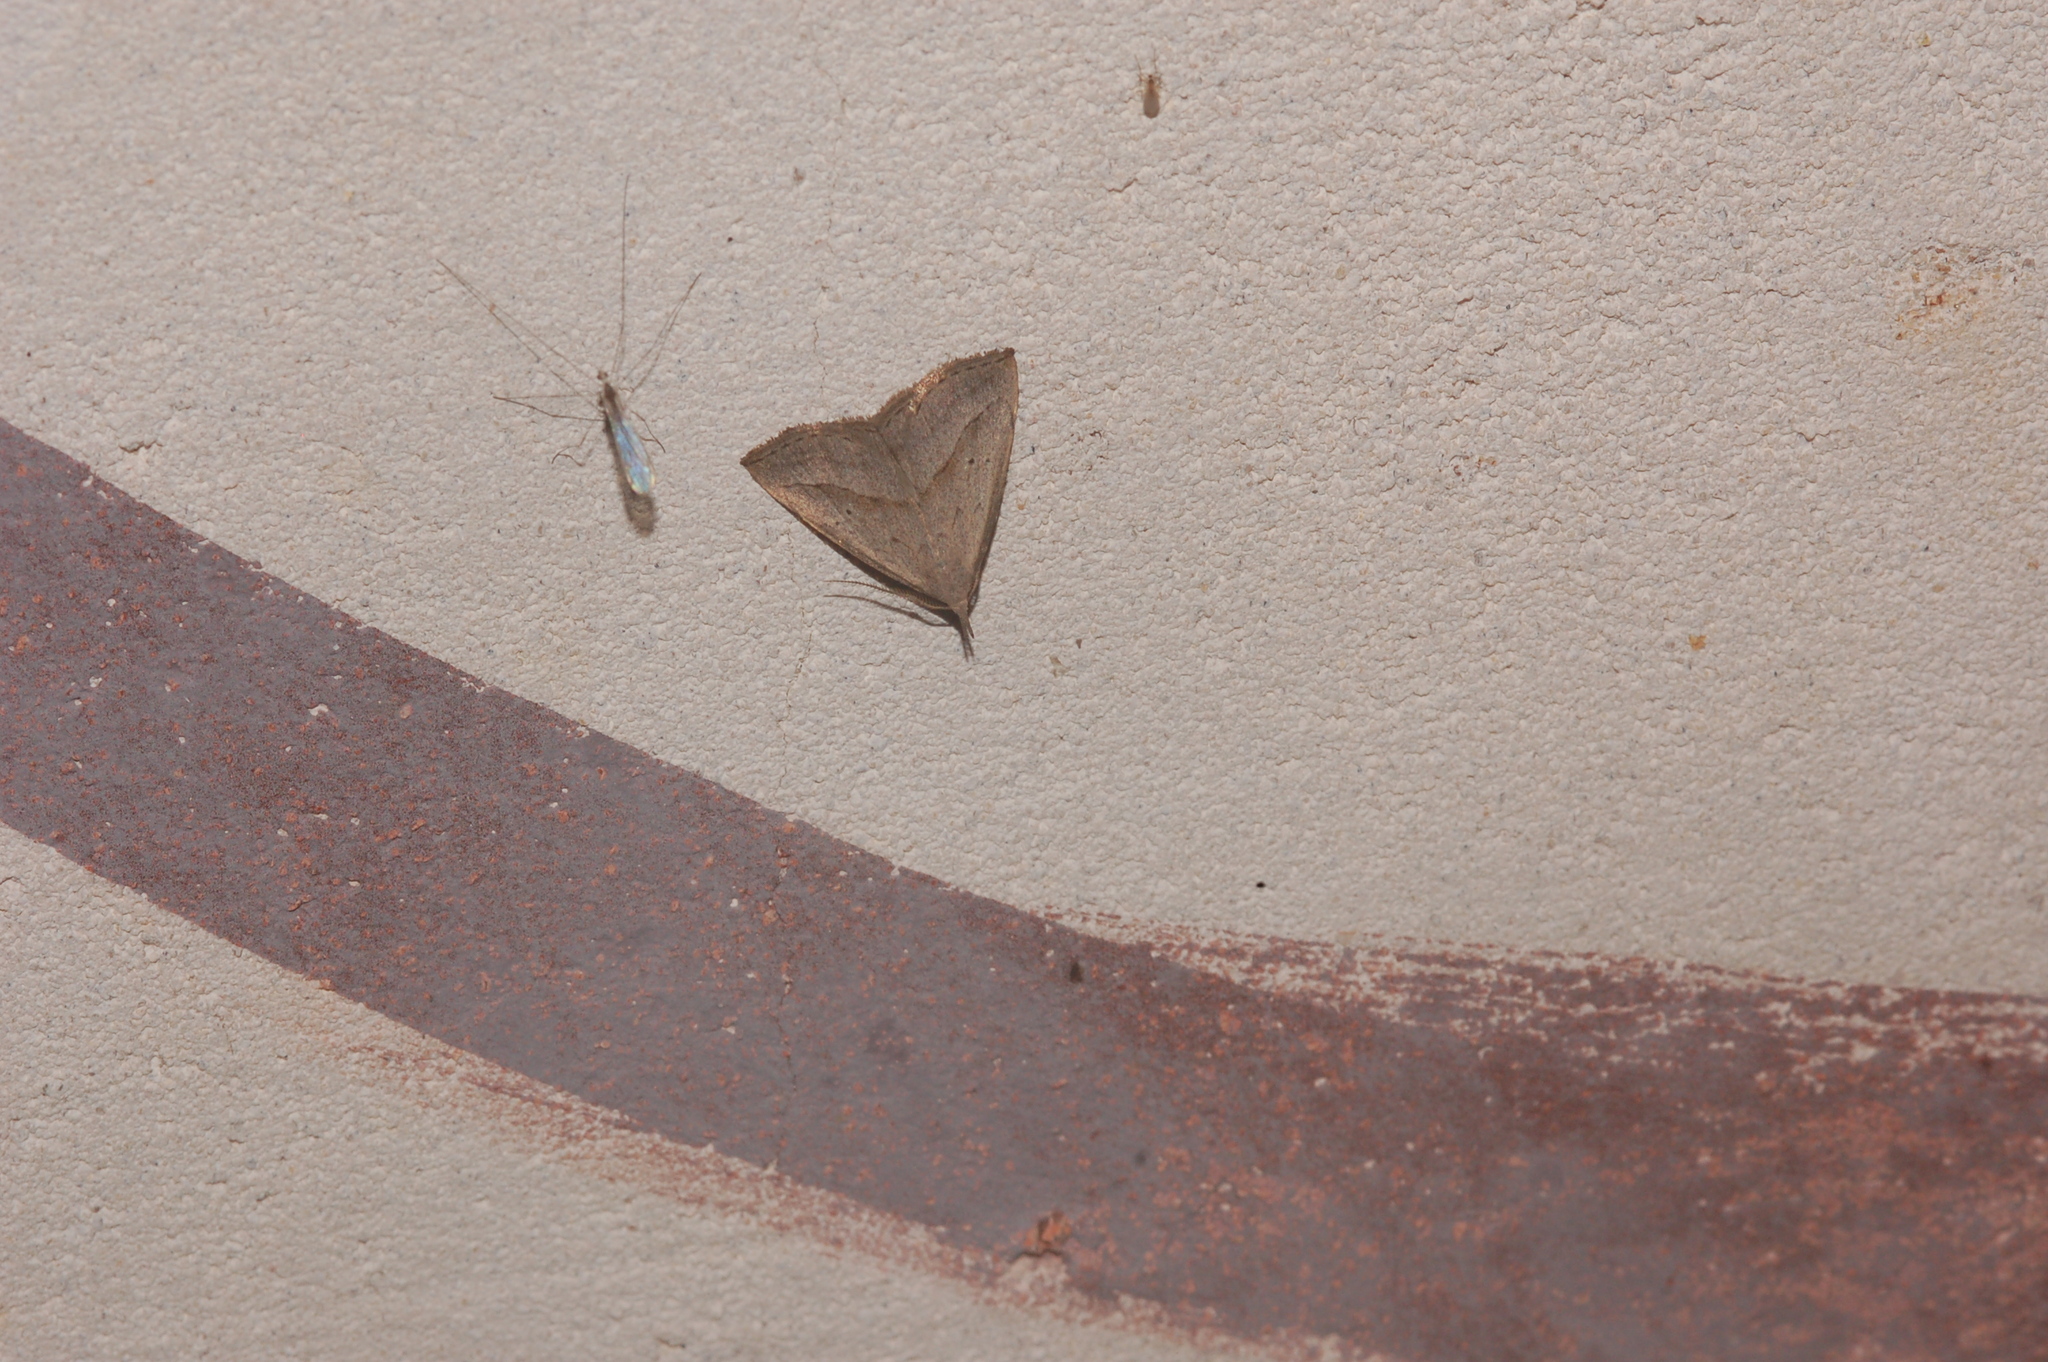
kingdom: Animalia
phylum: Arthropoda
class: Insecta
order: Lepidoptera
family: Erebidae
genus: Macrochilo
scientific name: Macrochilo hypocritalis
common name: Twin-dotted owlet
